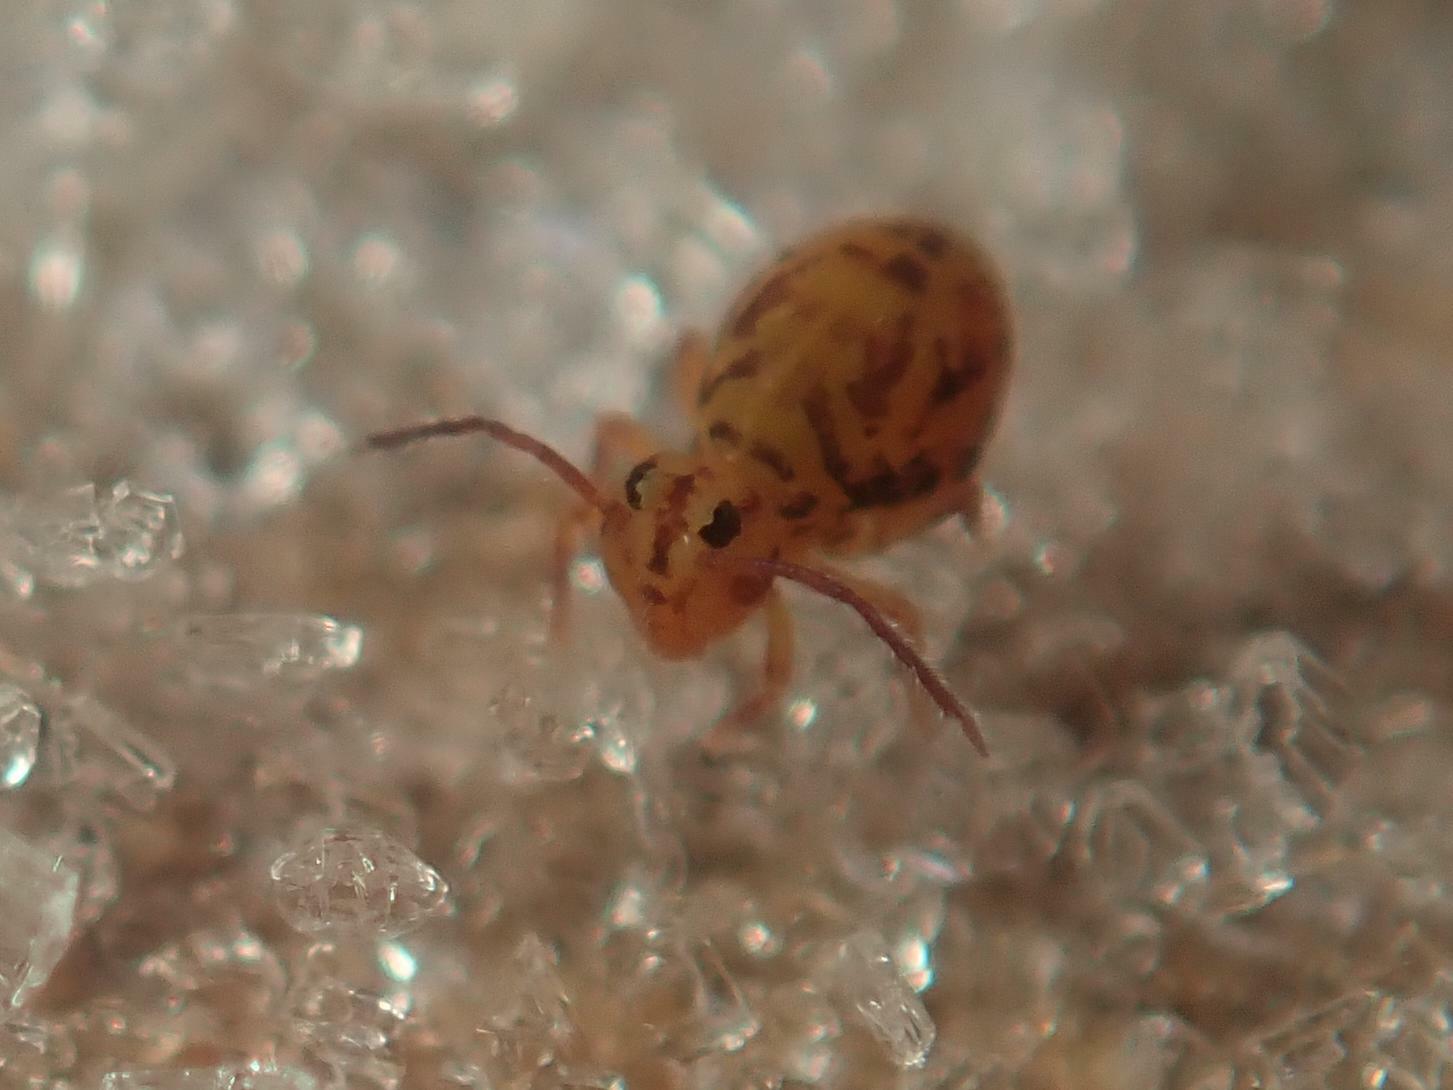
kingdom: Animalia
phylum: Arthropoda
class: Collembola
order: Symphypleona
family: Dicyrtomidae
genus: Dicyrtomina
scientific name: Dicyrtomina ornata
